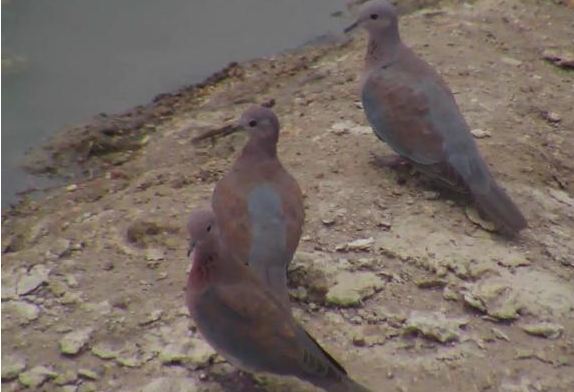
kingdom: Animalia
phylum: Chordata
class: Aves
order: Columbiformes
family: Columbidae
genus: Spilopelia
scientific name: Spilopelia senegalensis
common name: Laughing dove
